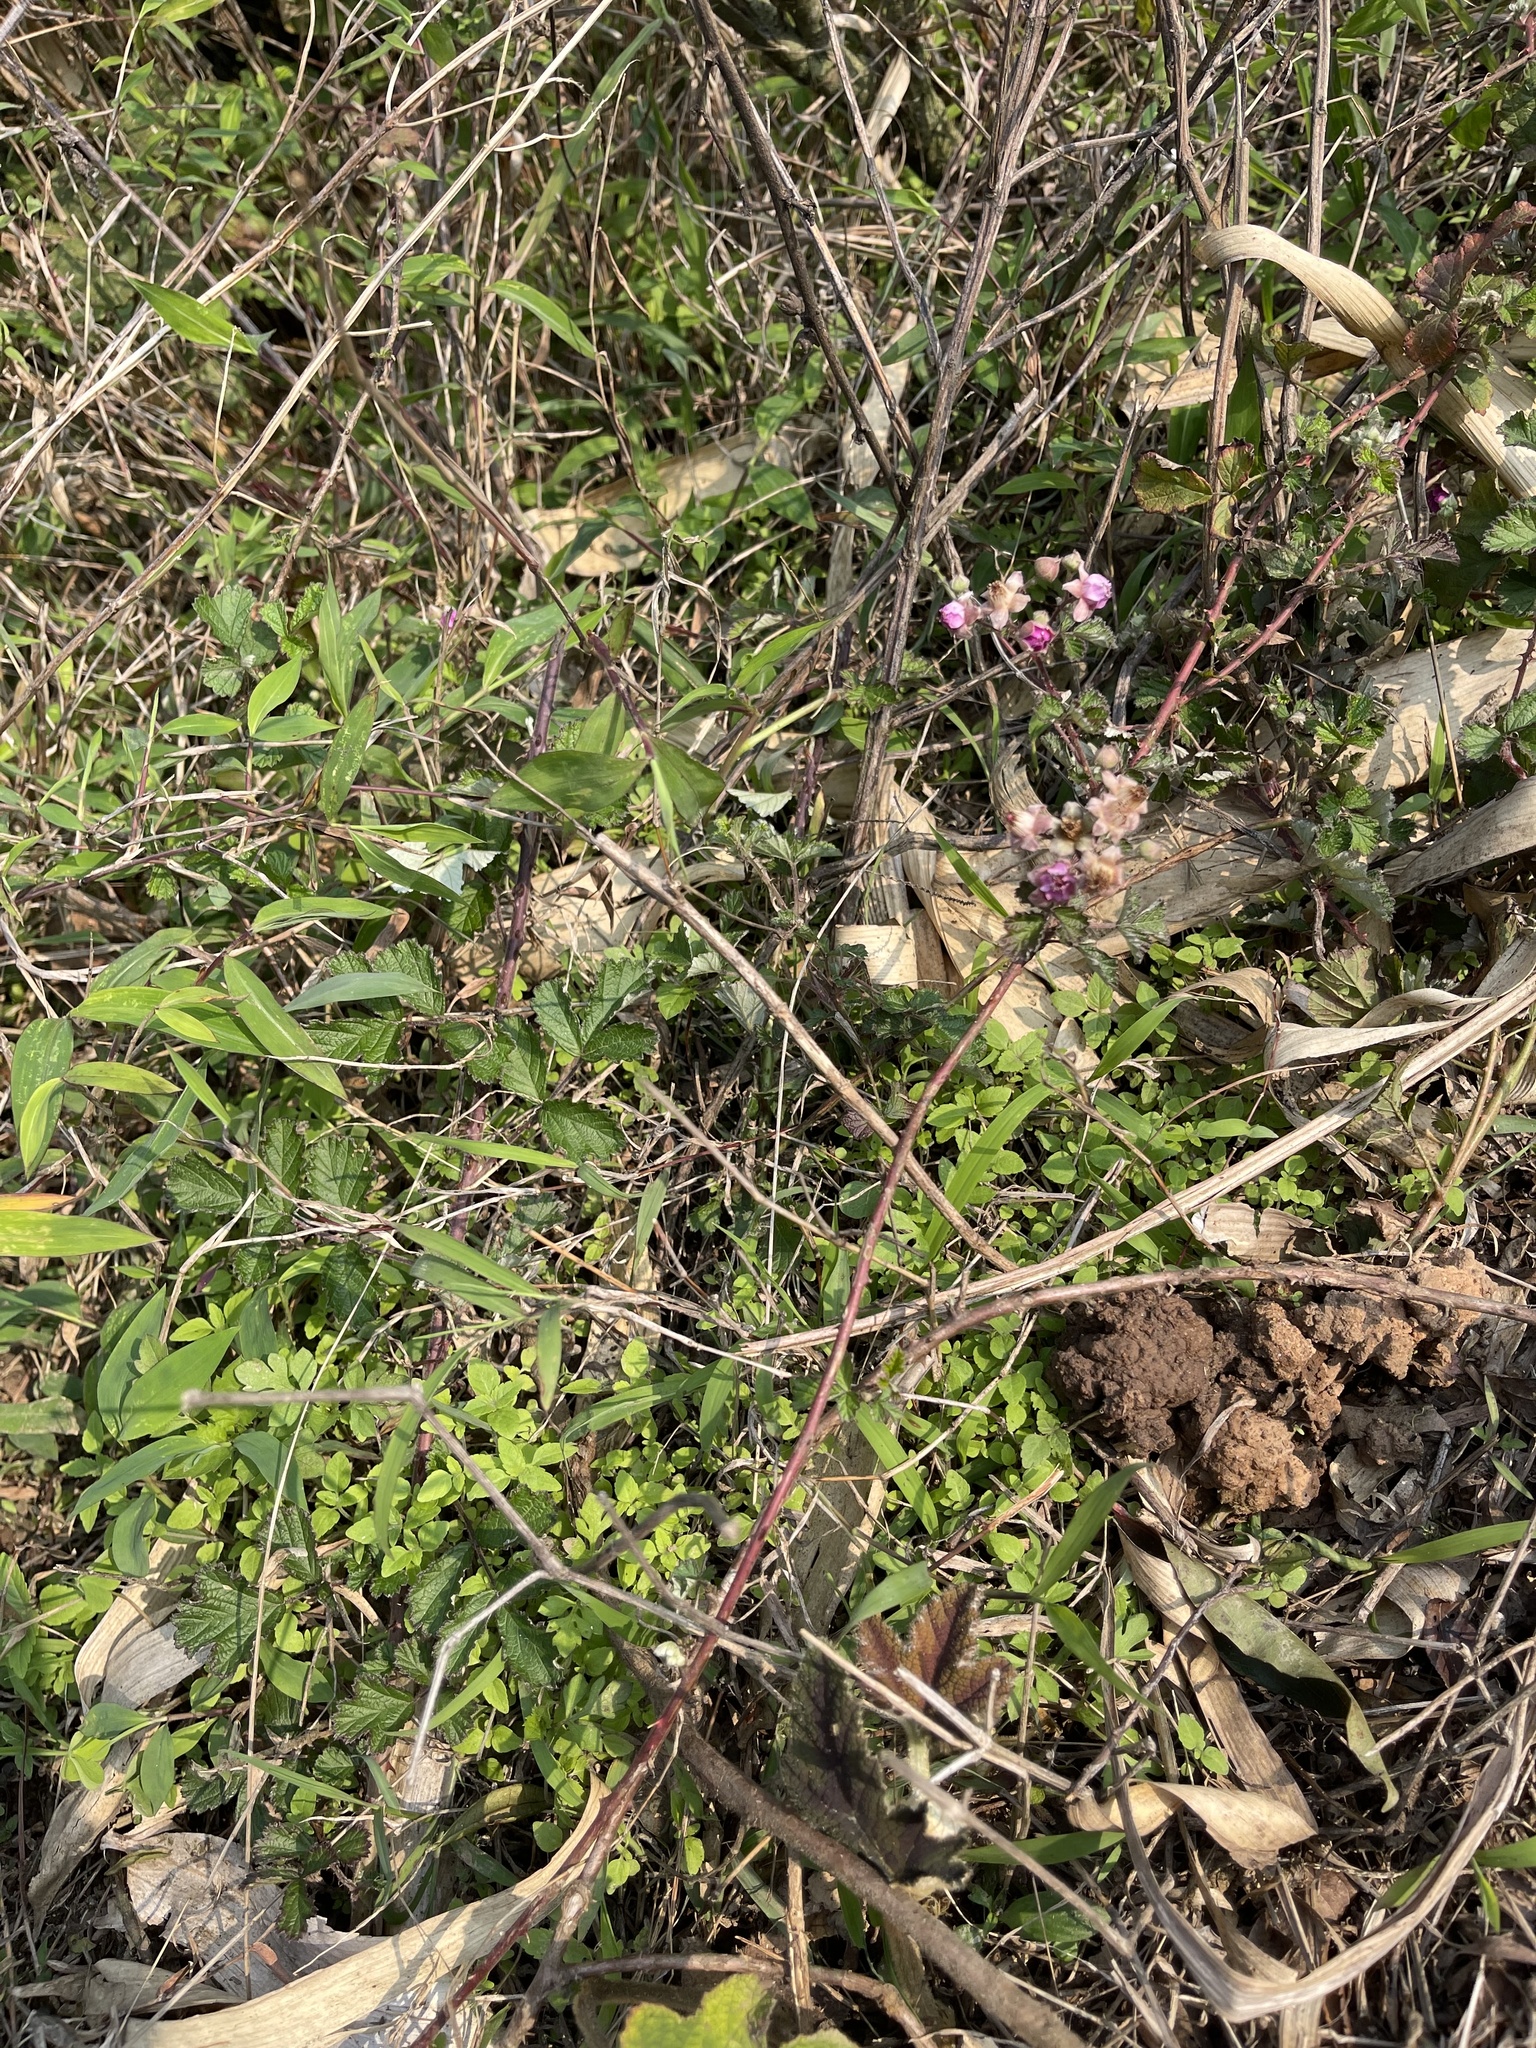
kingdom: Plantae
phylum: Tracheophyta
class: Magnoliopsida
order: Rosales
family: Rosaceae
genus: Rubus
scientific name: Rubus parvifolius
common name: Threeleaf blackberry
